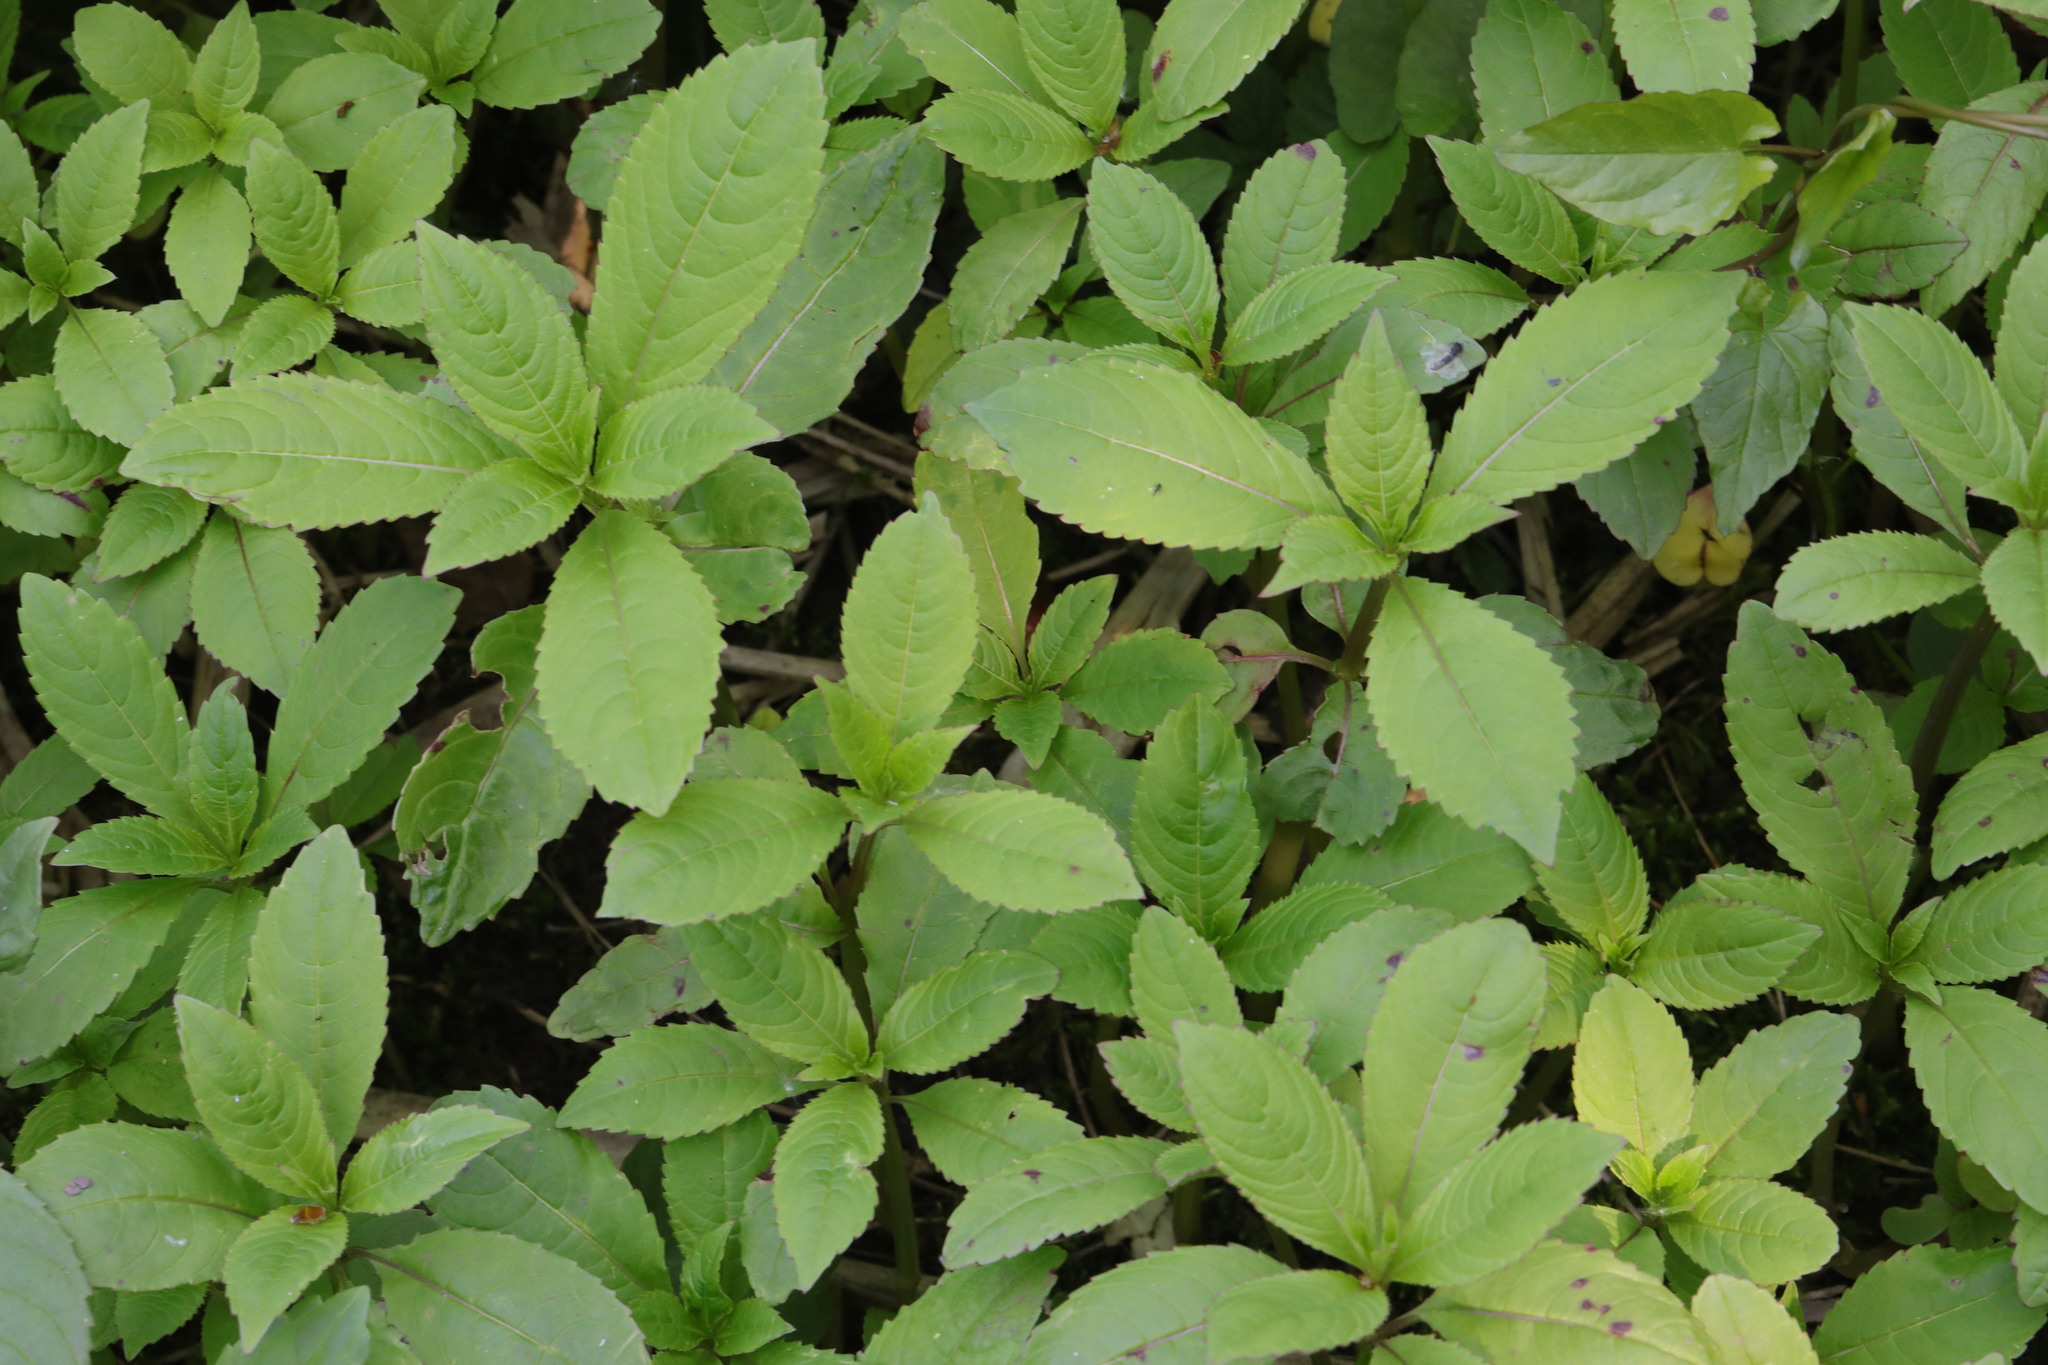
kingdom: Plantae
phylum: Tracheophyta
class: Magnoliopsida
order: Ericales
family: Balsaminaceae
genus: Impatiens
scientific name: Impatiens glandulifera
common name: Himalayan balsam
